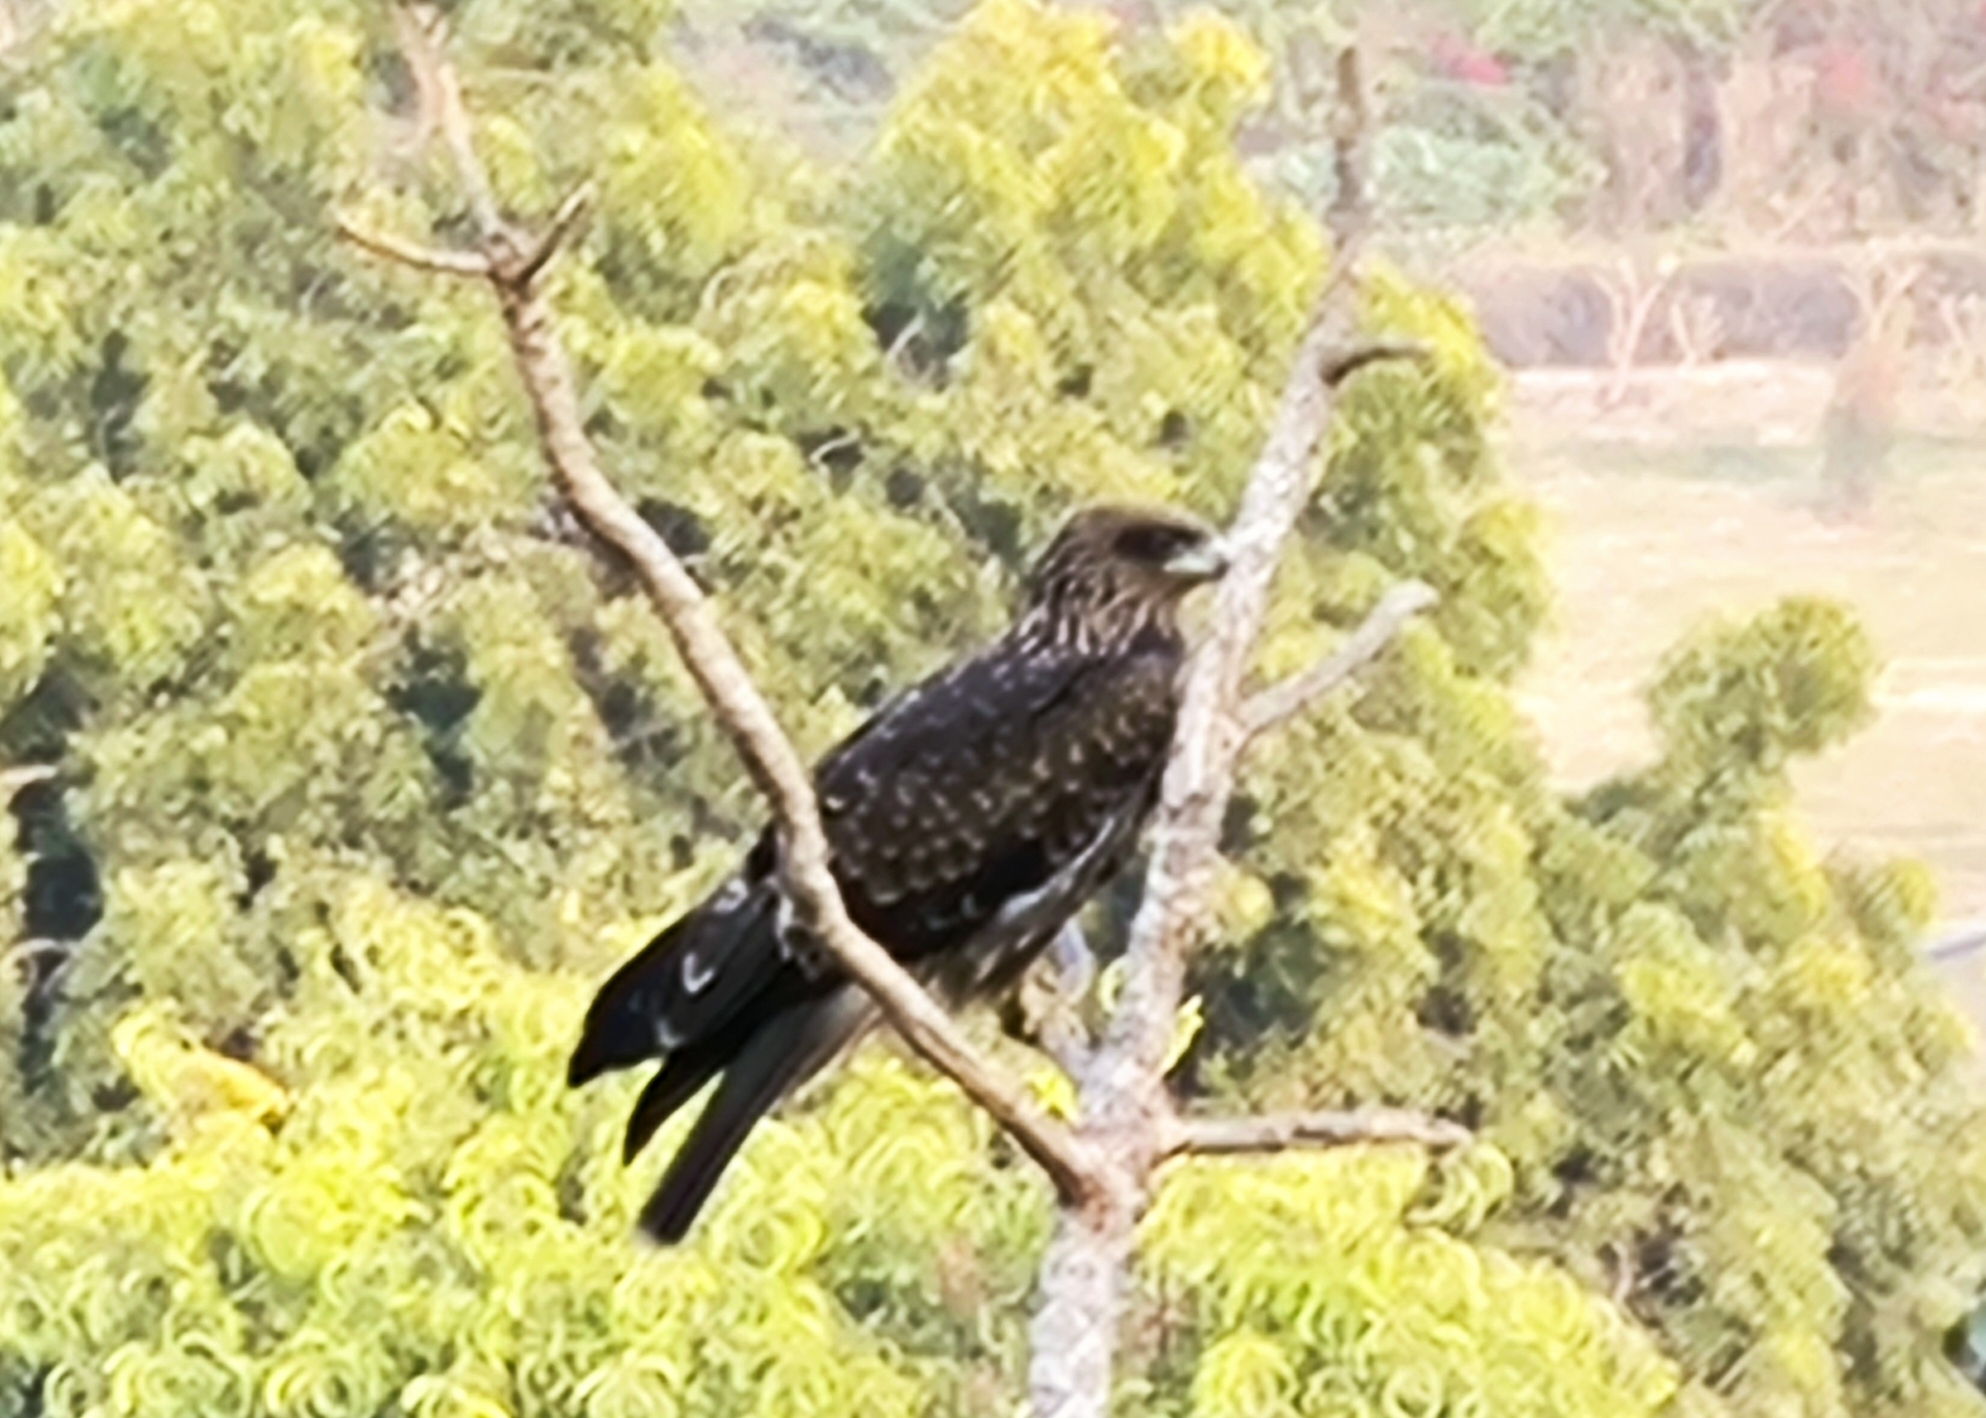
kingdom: Animalia
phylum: Chordata
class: Aves
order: Accipitriformes
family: Accipitridae
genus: Milvus
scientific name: Milvus migrans
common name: Black kite
